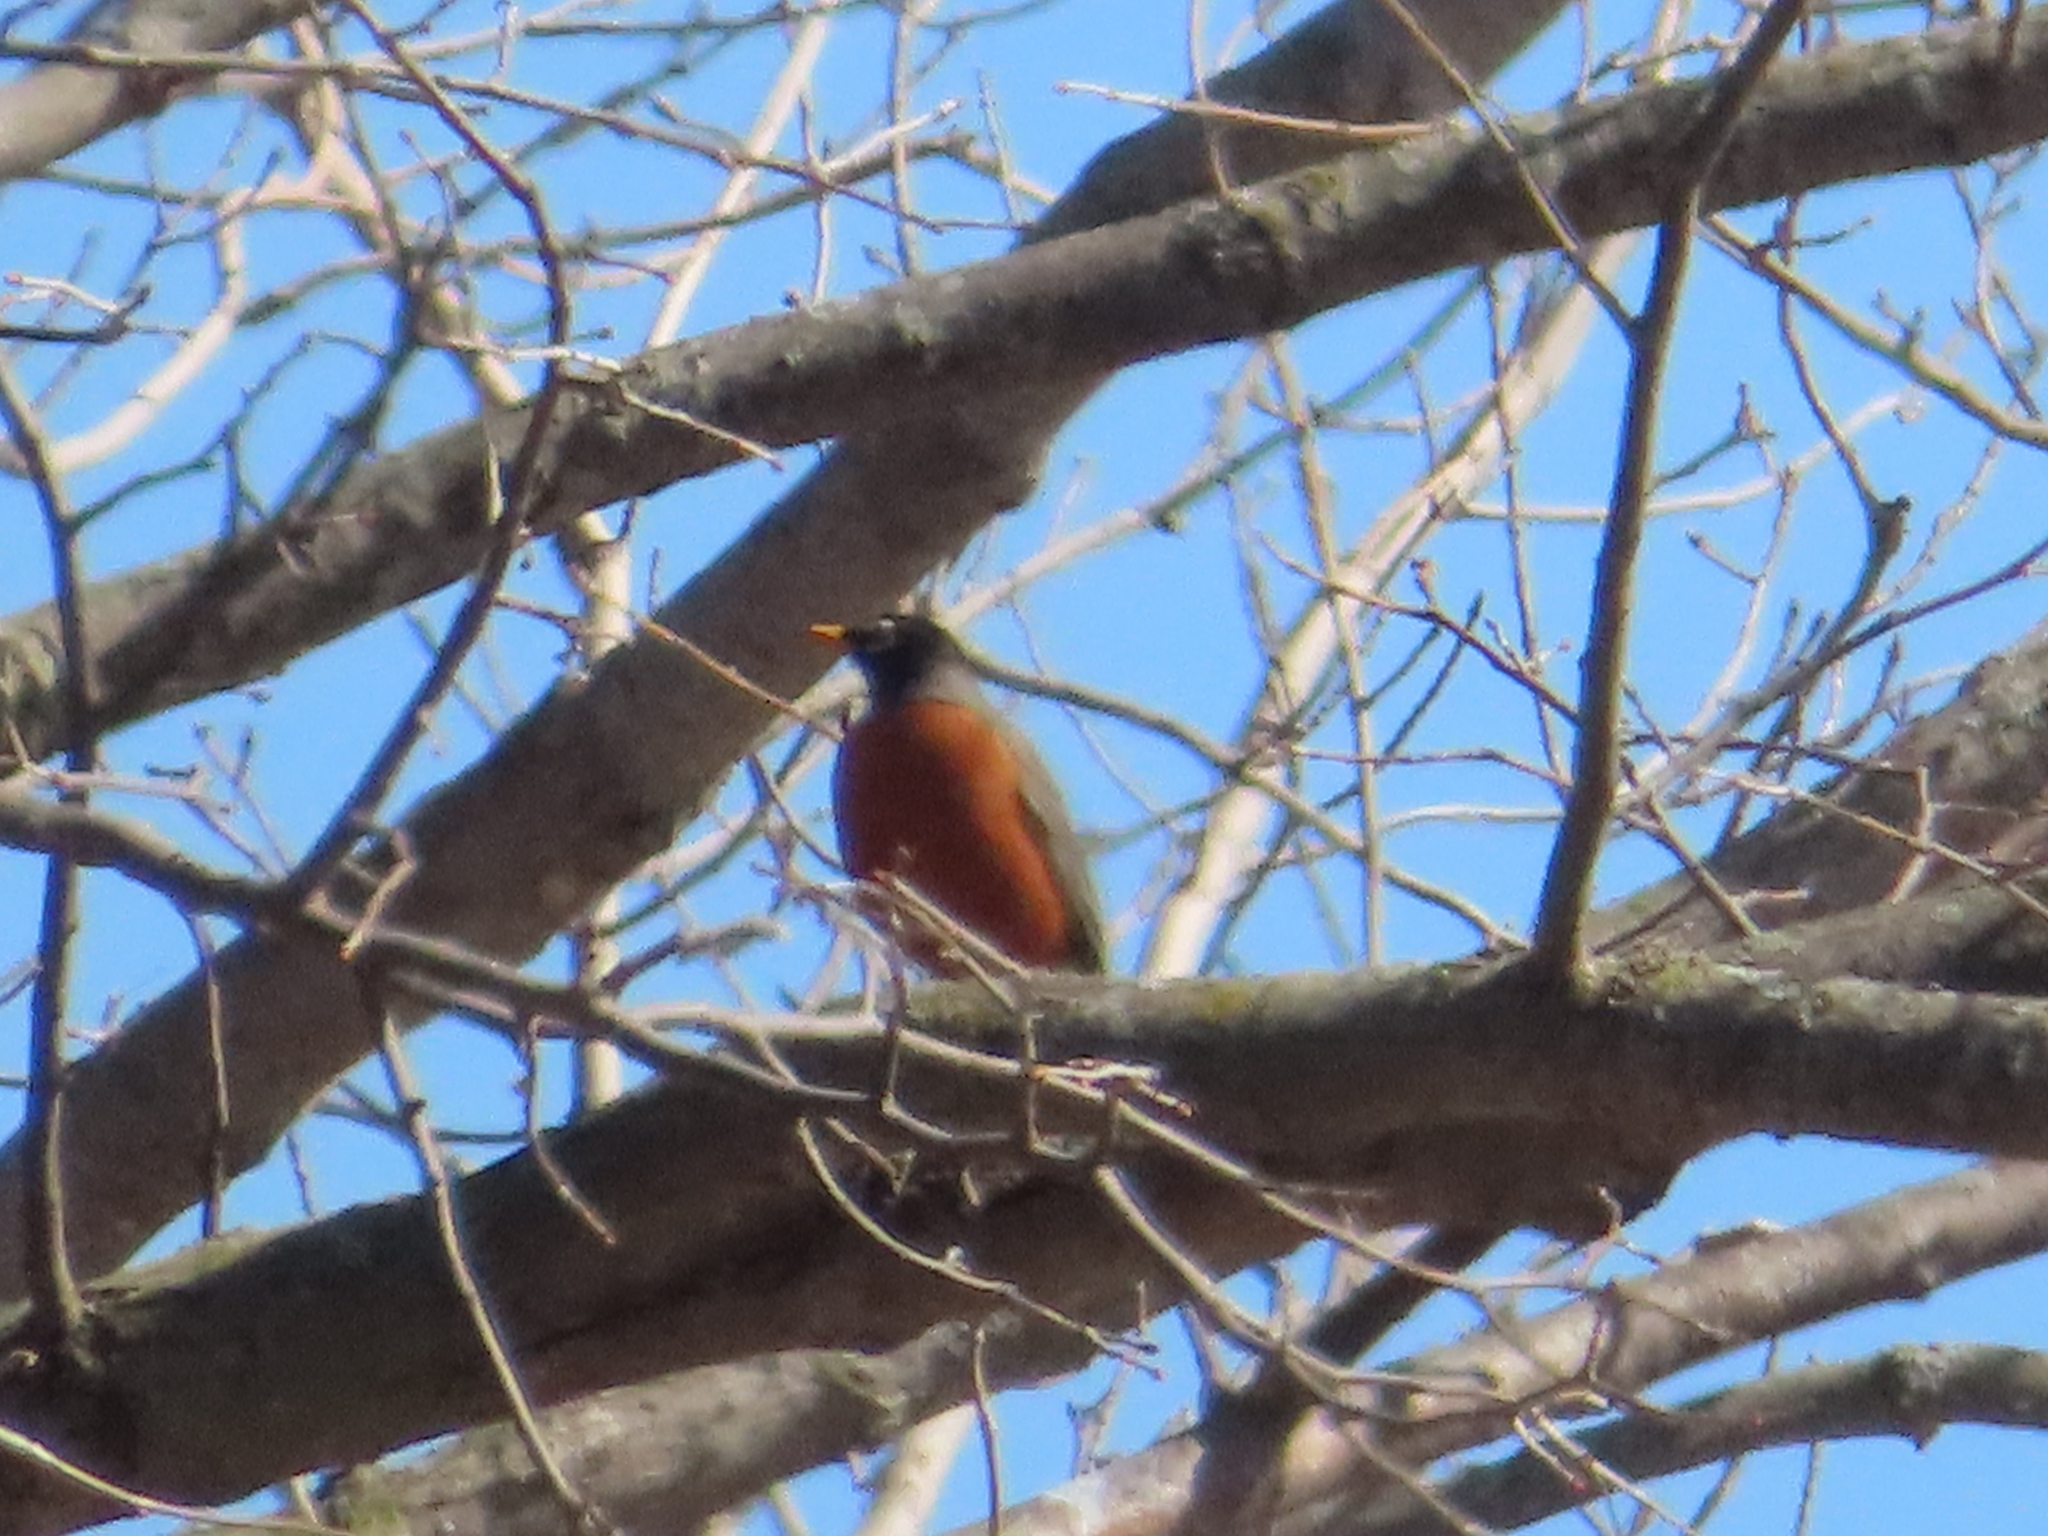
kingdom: Animalia
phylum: Chordata
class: Aves
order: Passeriformes
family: Turdidae
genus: Turdus
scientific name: Turdus migratorius
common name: American robin
